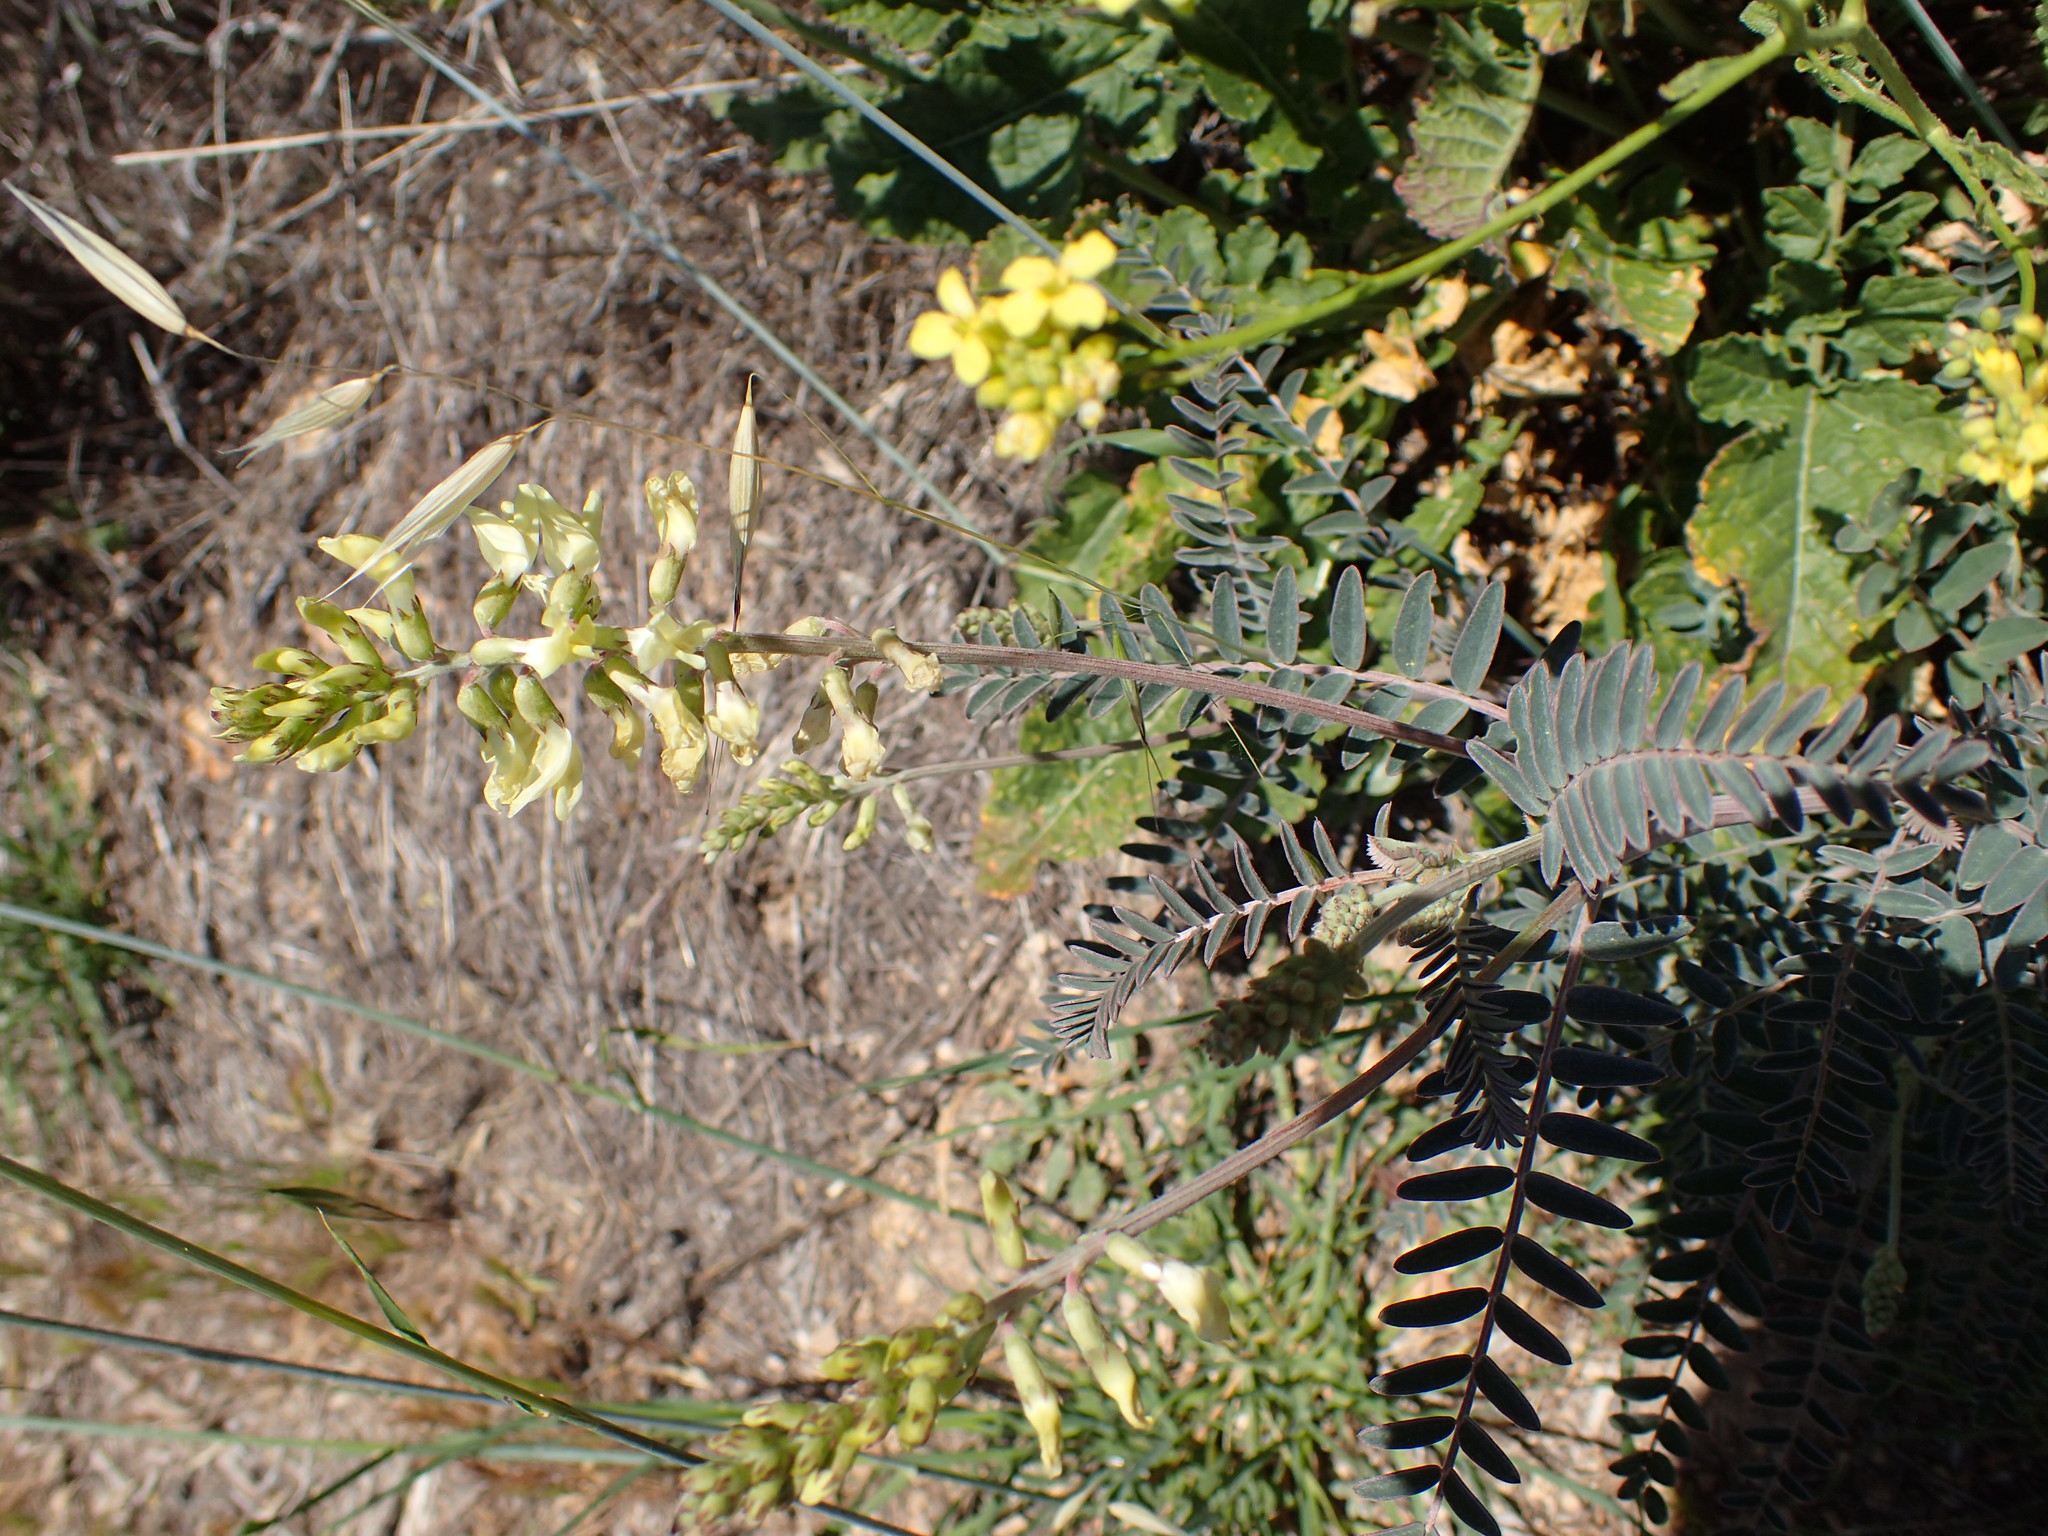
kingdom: Plantae
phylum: Tracheophyta
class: Magnoliopsida
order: Fabales
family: Fabaceae
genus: Astragalus
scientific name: Astragalus trichopodus
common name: Santa barbara milk-vetch
